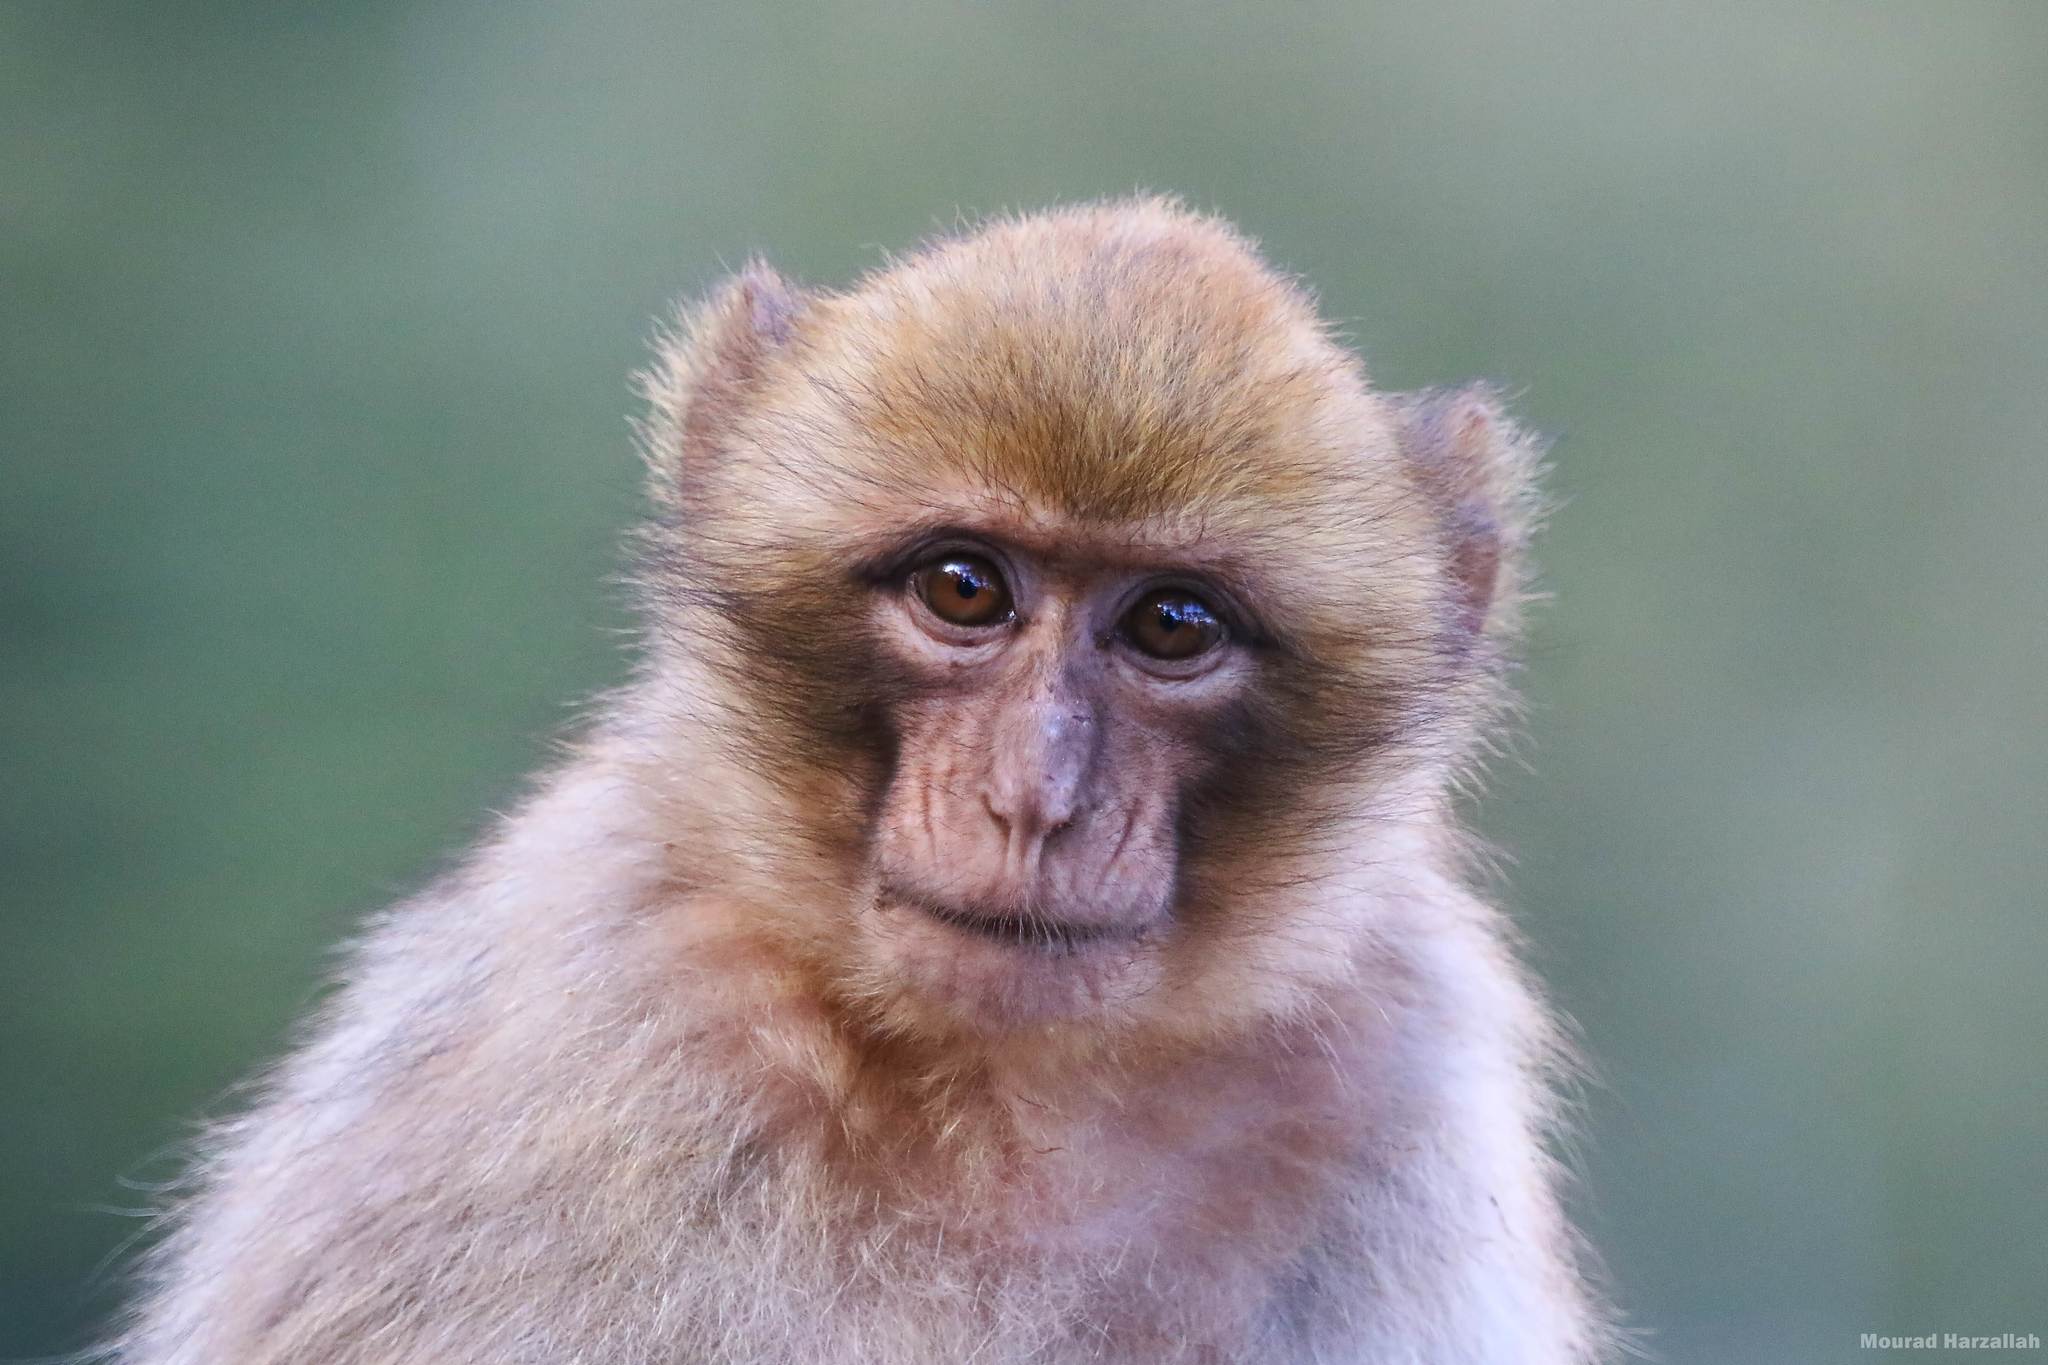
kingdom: Animalia
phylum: Chordata
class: Mammalia
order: Primates
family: Cercopithecidae
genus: Macaca
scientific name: Macaca sylvanus
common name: Barbary macaque
